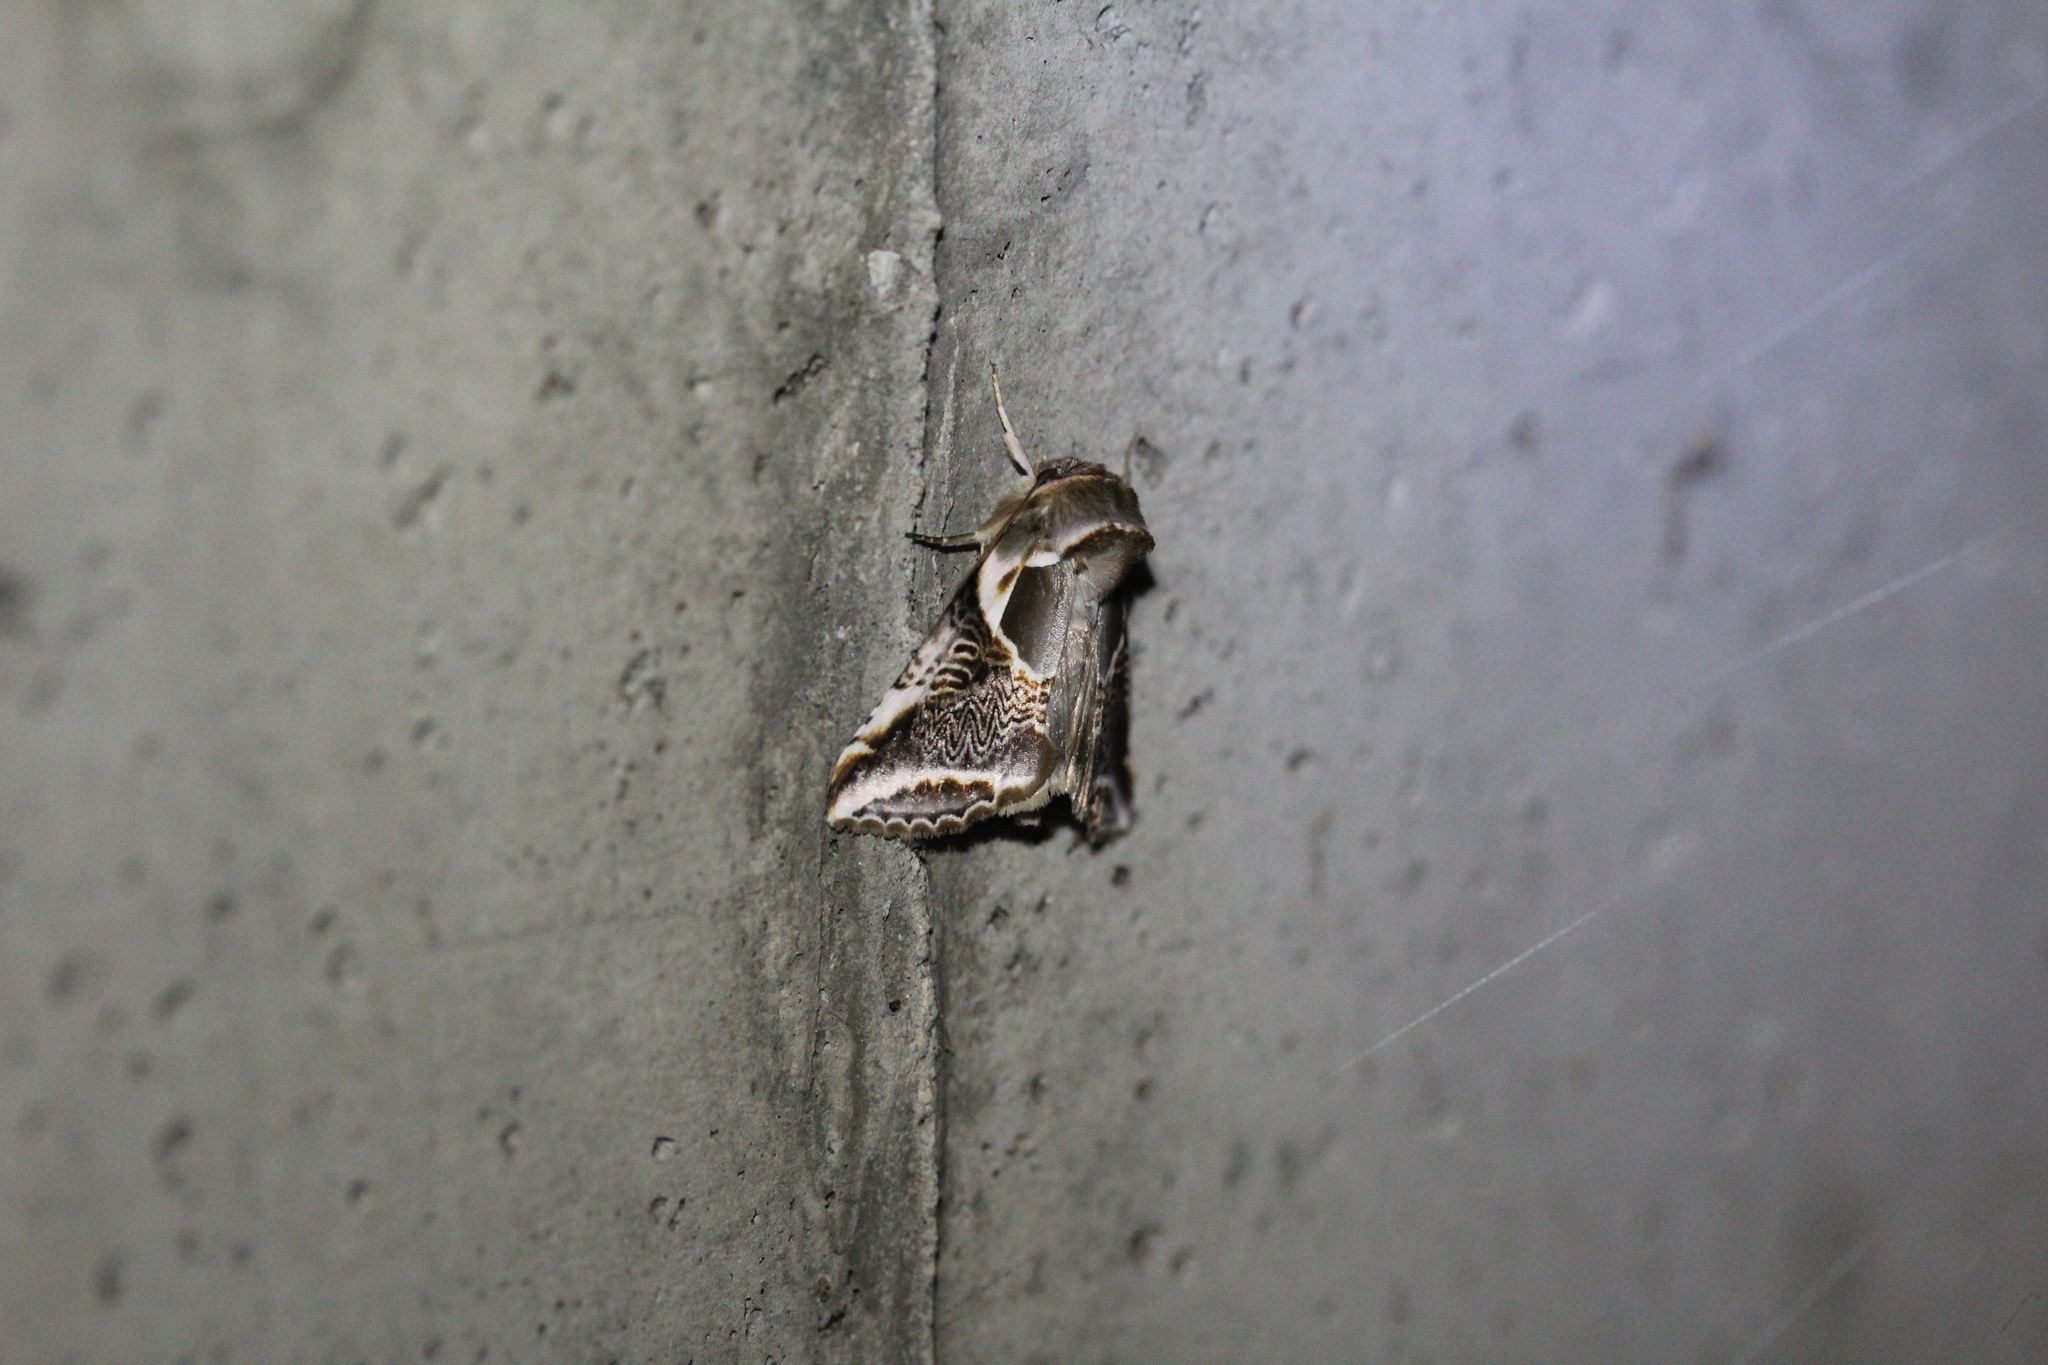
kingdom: Animalia
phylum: Arthropoda
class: Insecta
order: Lepidoptera
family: Drepanidae
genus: Habrosyne
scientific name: Habrosyne scripta
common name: Lettered habrosyne moth
